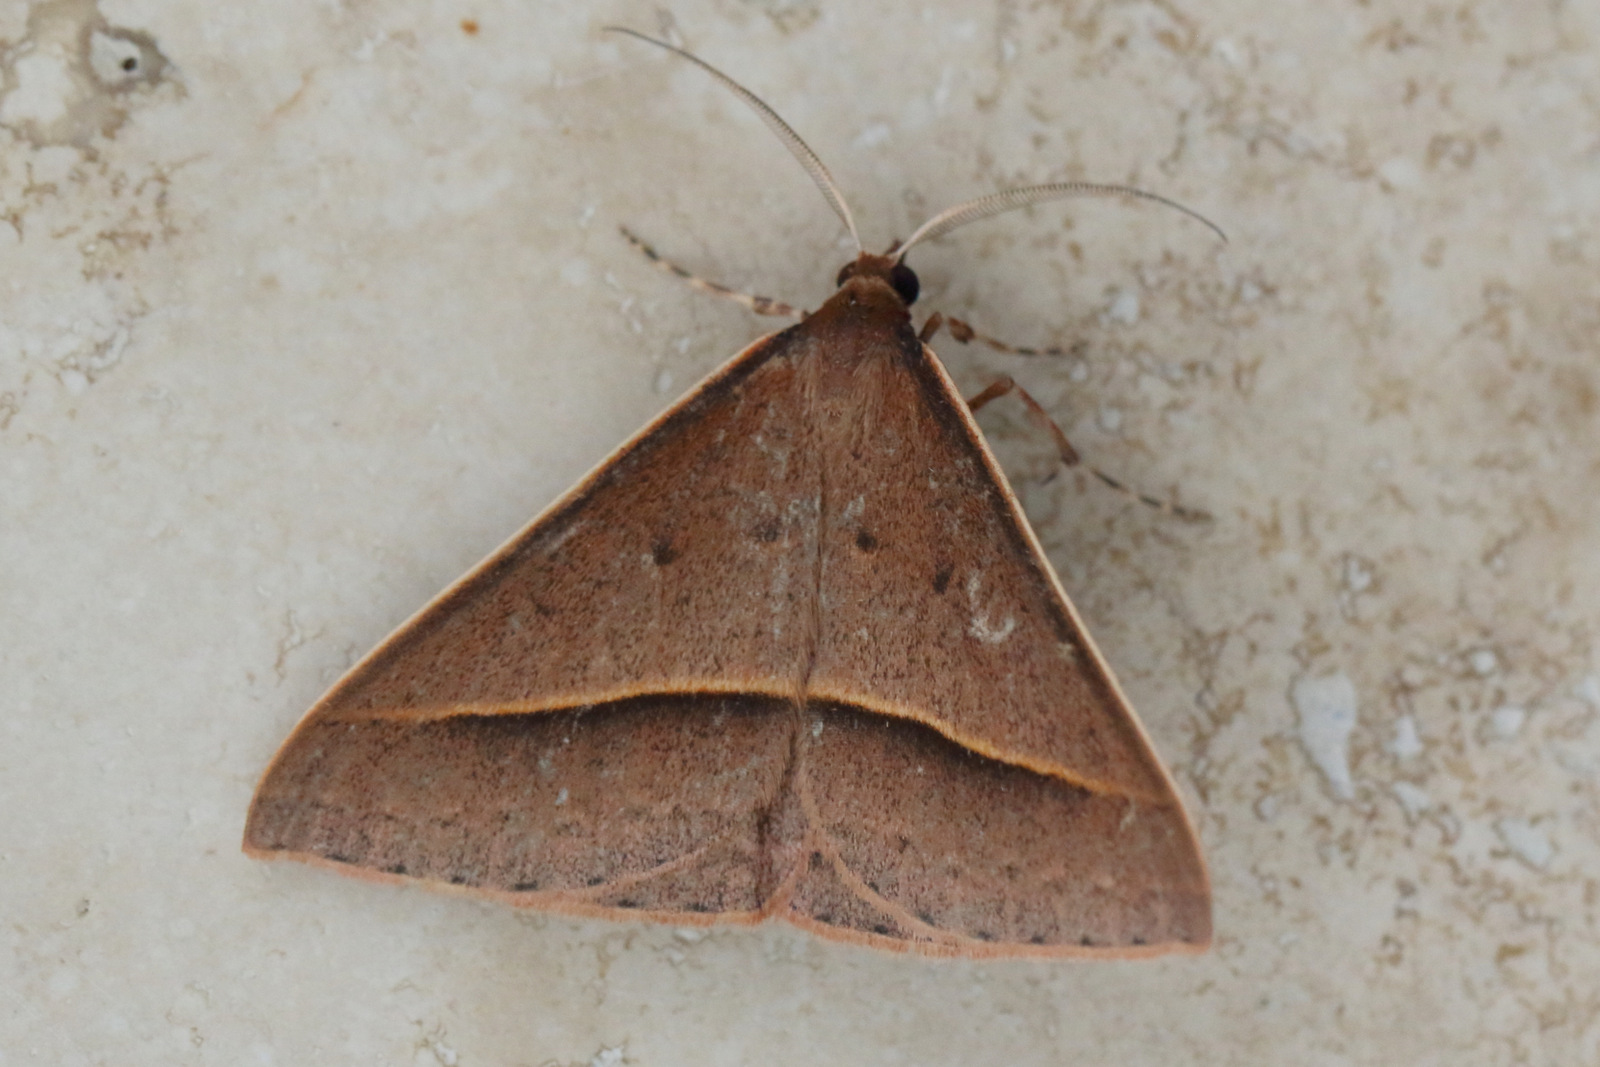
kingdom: Animalia
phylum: Arthropoda
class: Insecta
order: Lepidoptera
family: Geometridae
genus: Epidesmia
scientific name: Epidesmia chilonaria
